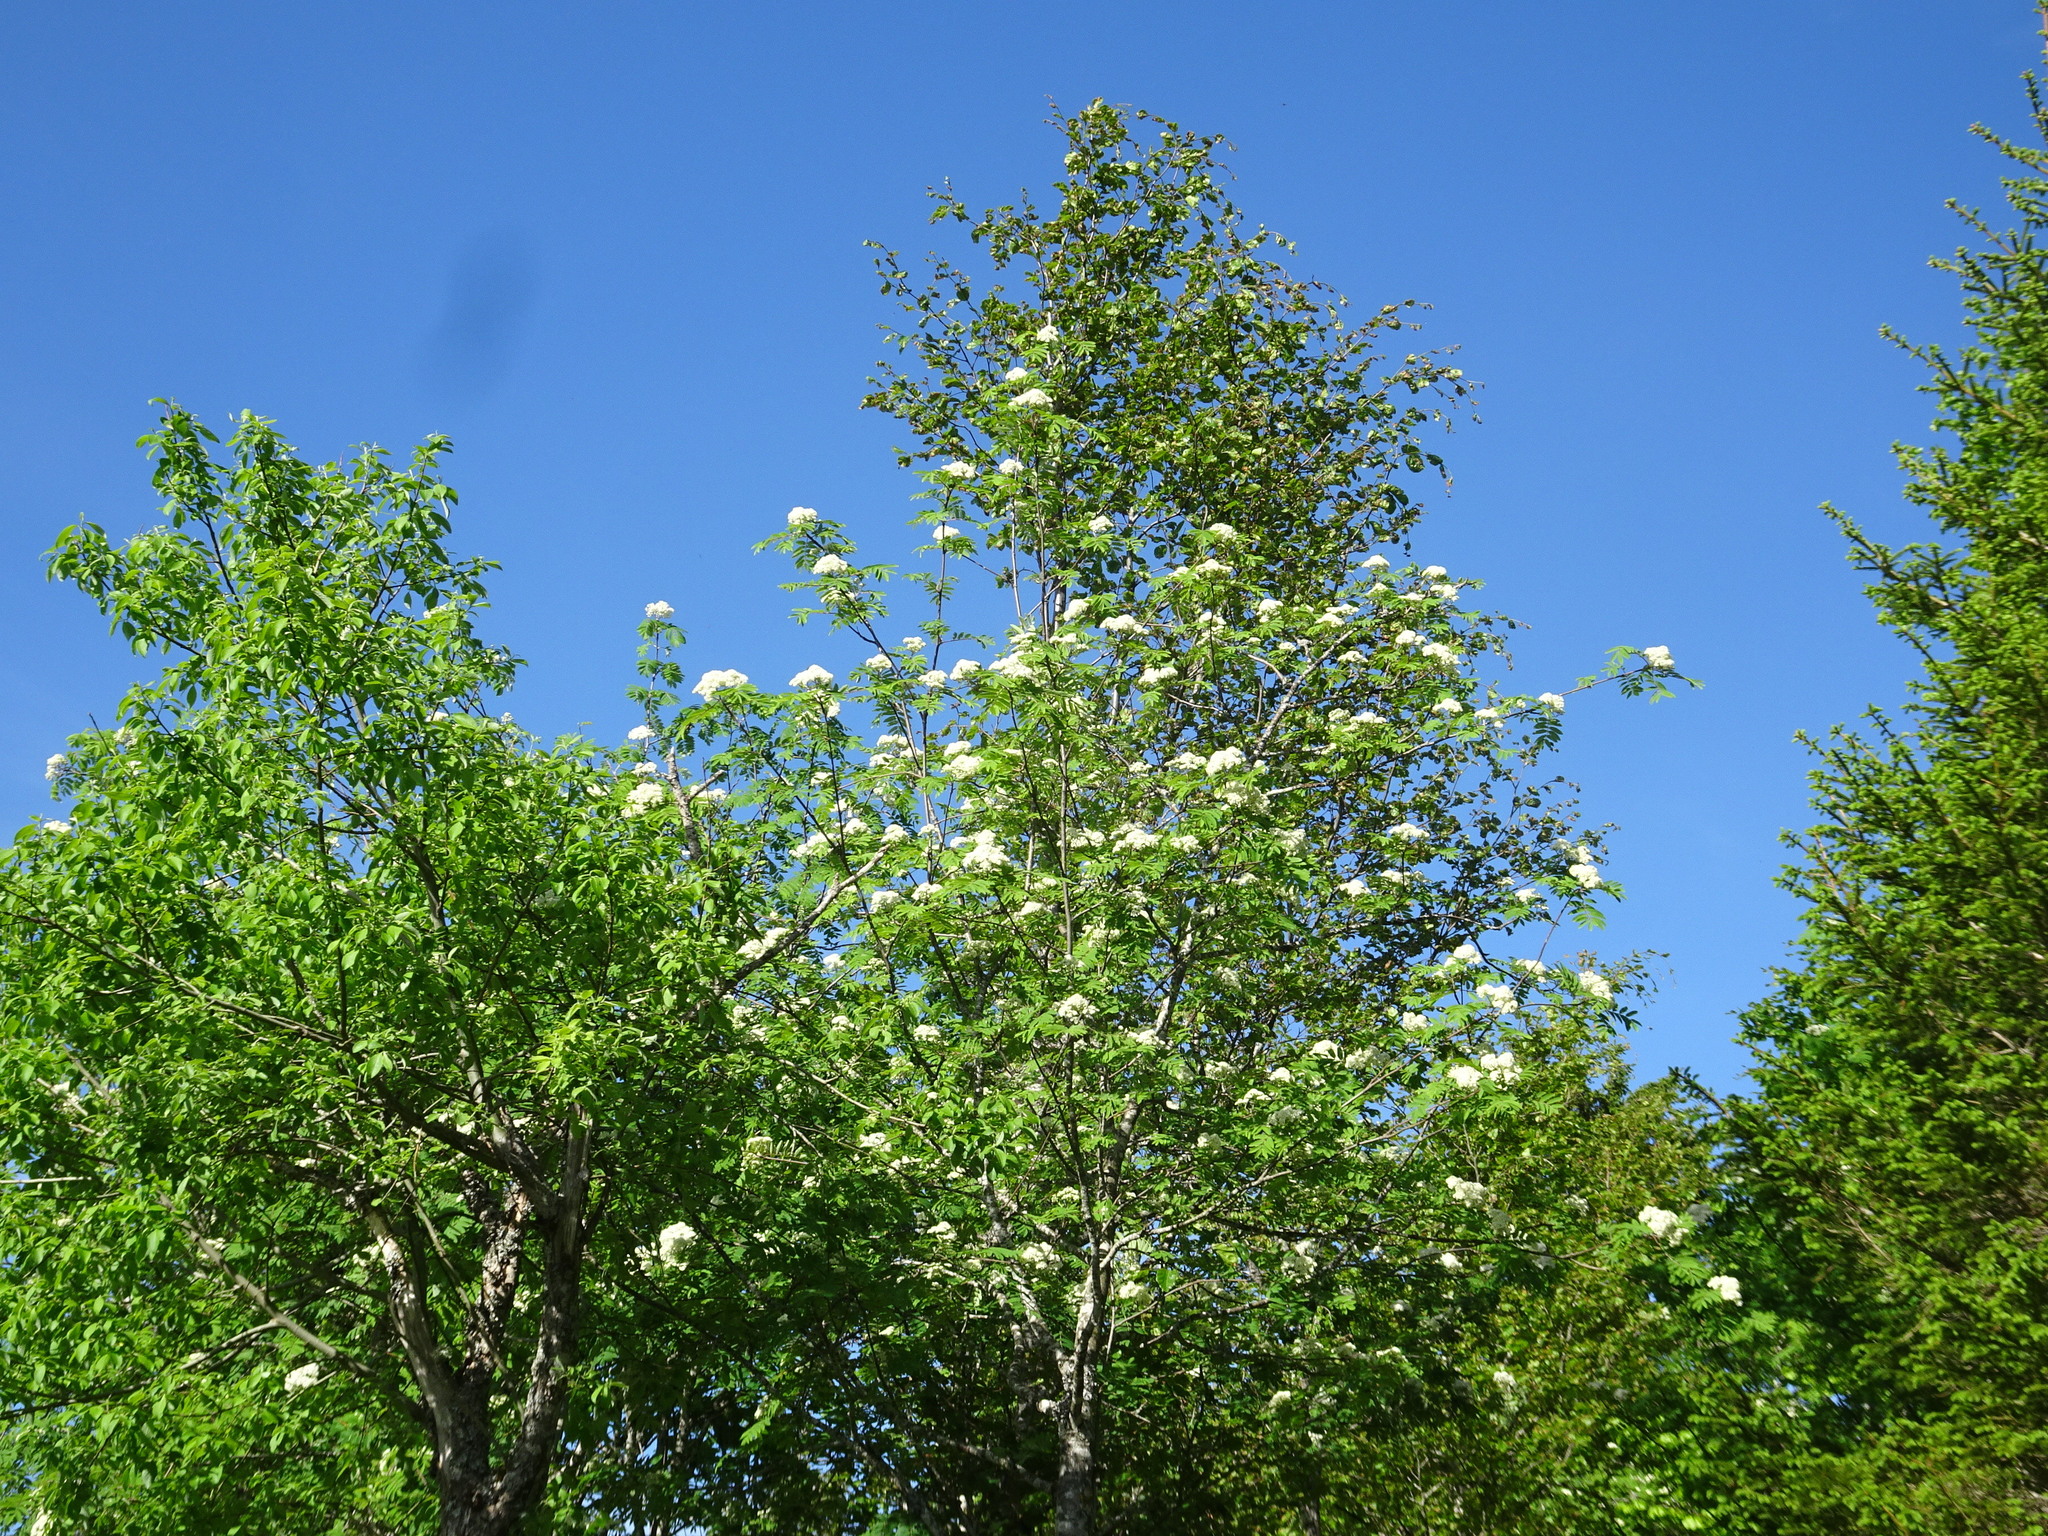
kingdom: Plantae
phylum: Tracheophyta
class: Magnoliopsida
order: Rosales
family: Rosaceae
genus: Sorbus
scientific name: Sorbus aucuparia
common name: Rowan
